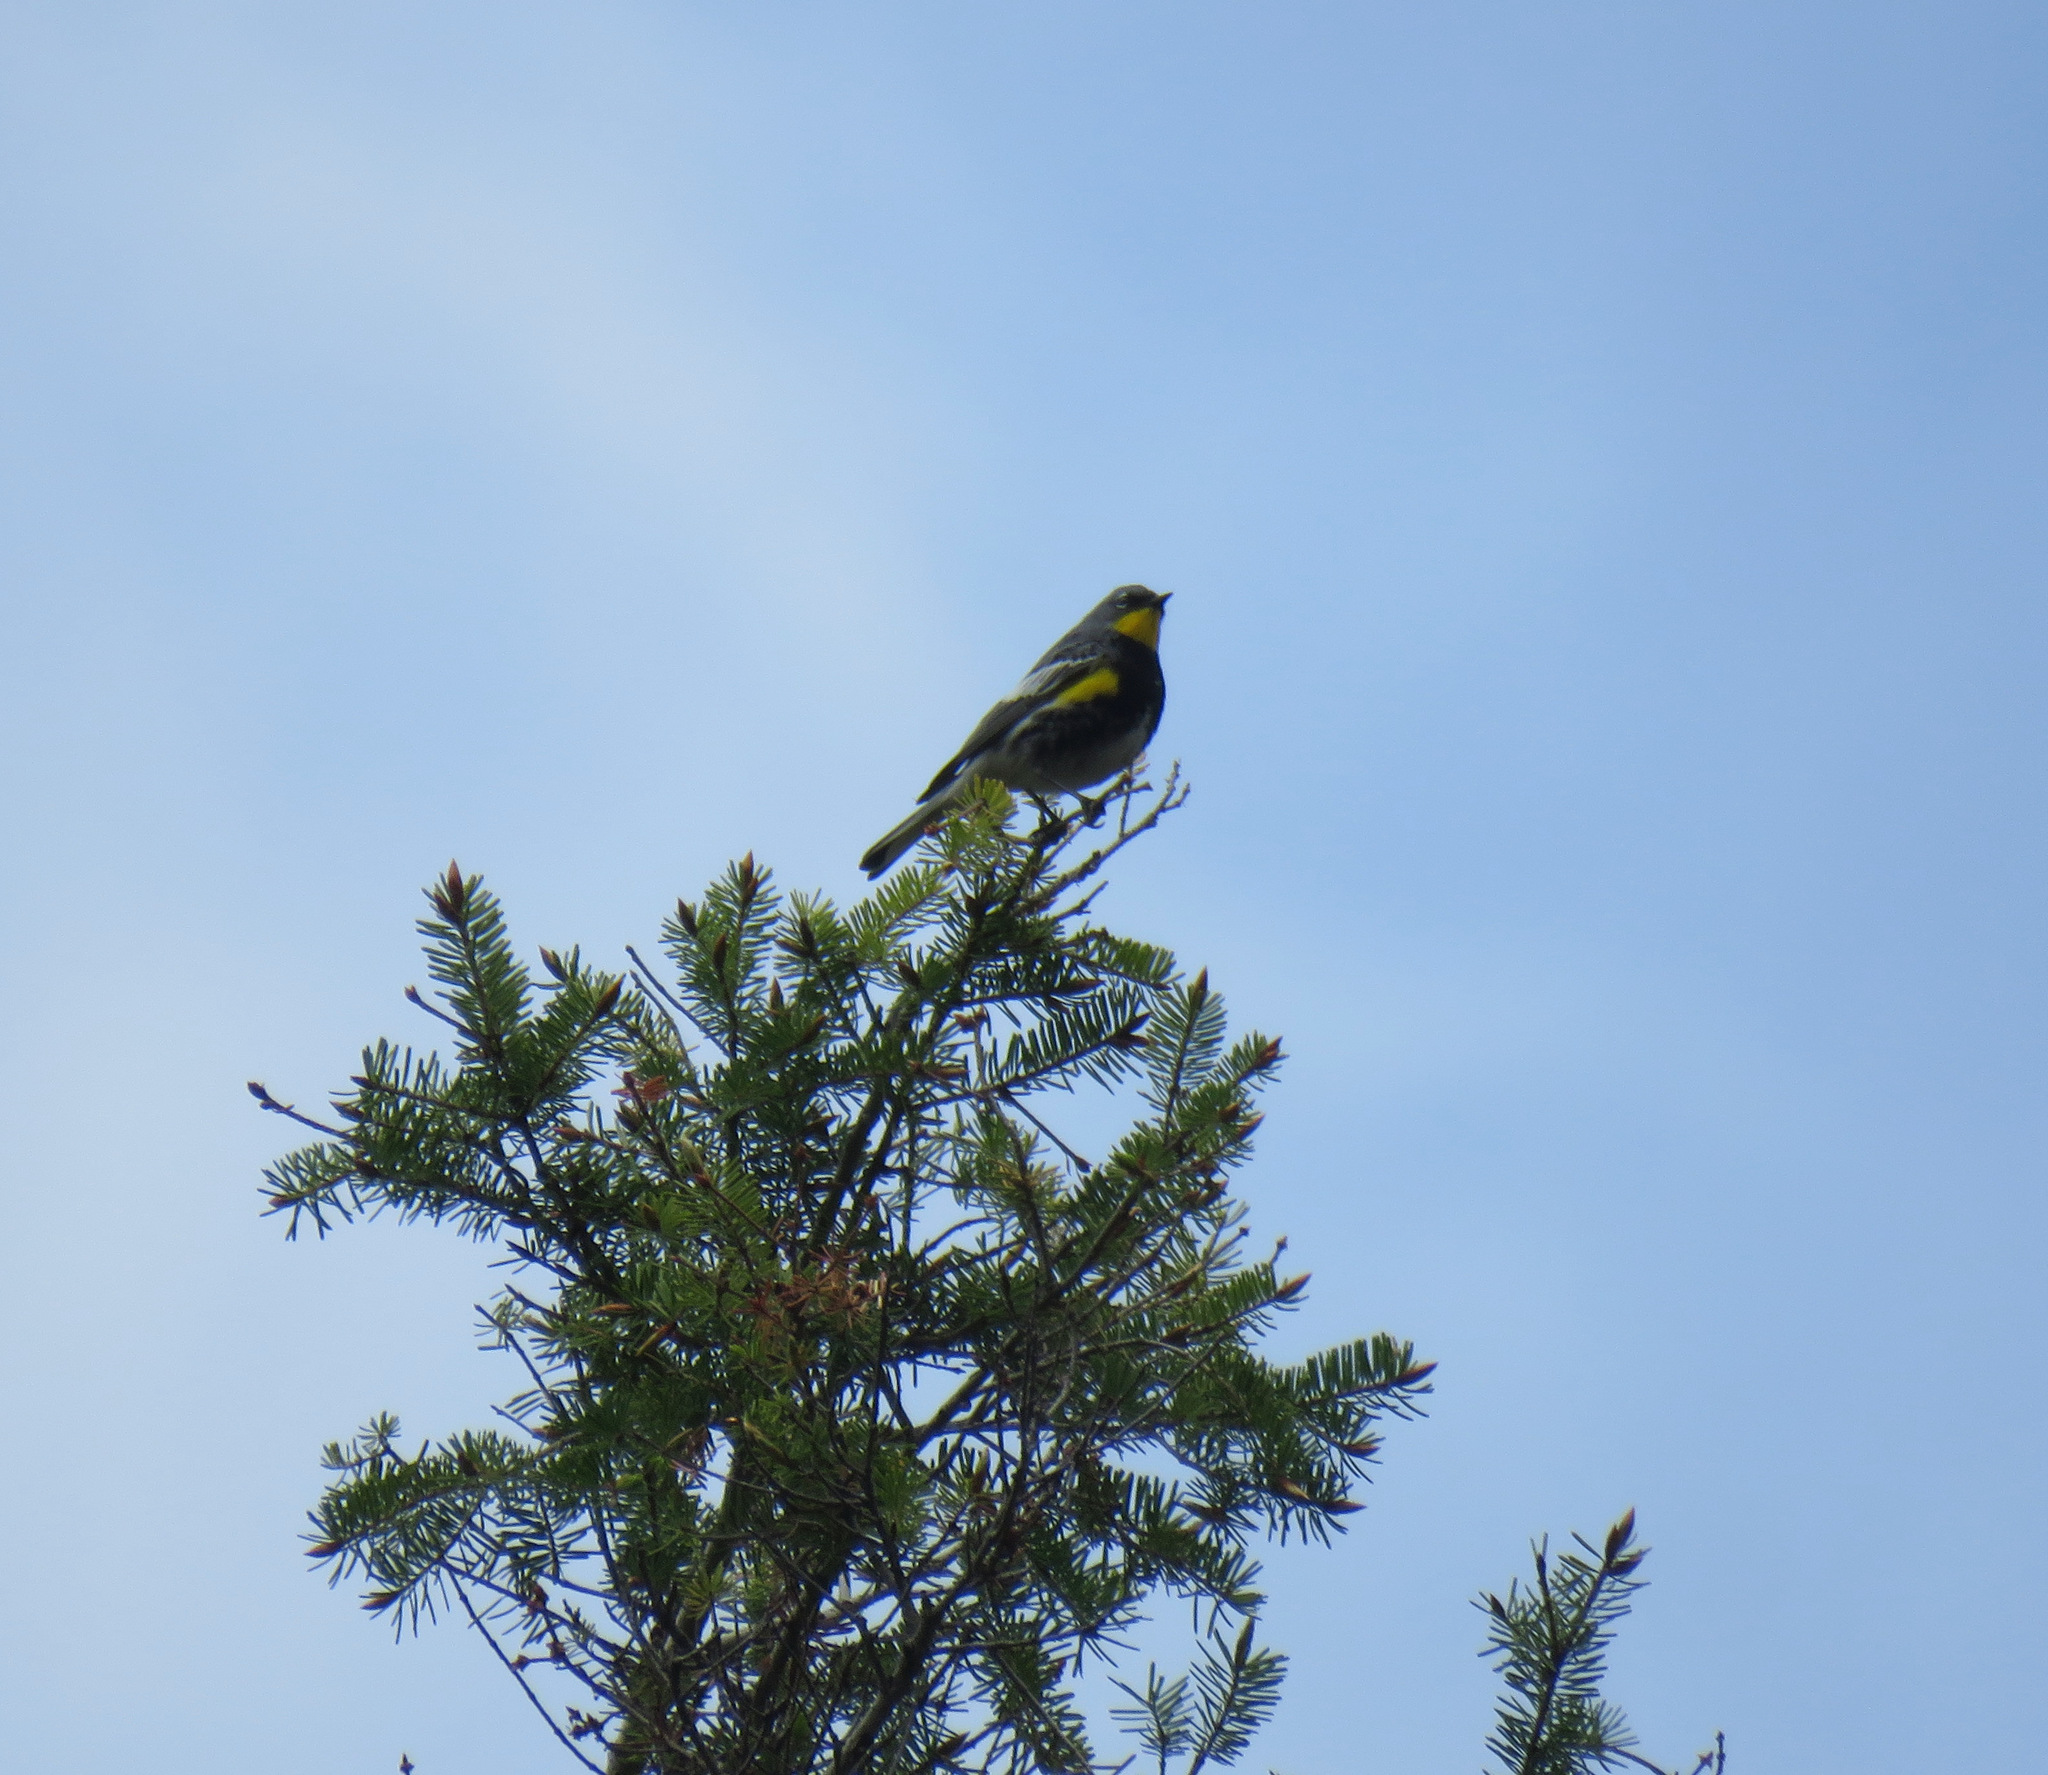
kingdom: Animalia
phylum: Chordata
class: Aves
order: Passeriformes
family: Parulidae
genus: Setophaga
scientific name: Setophaga coronata
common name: Myrtle warbler
